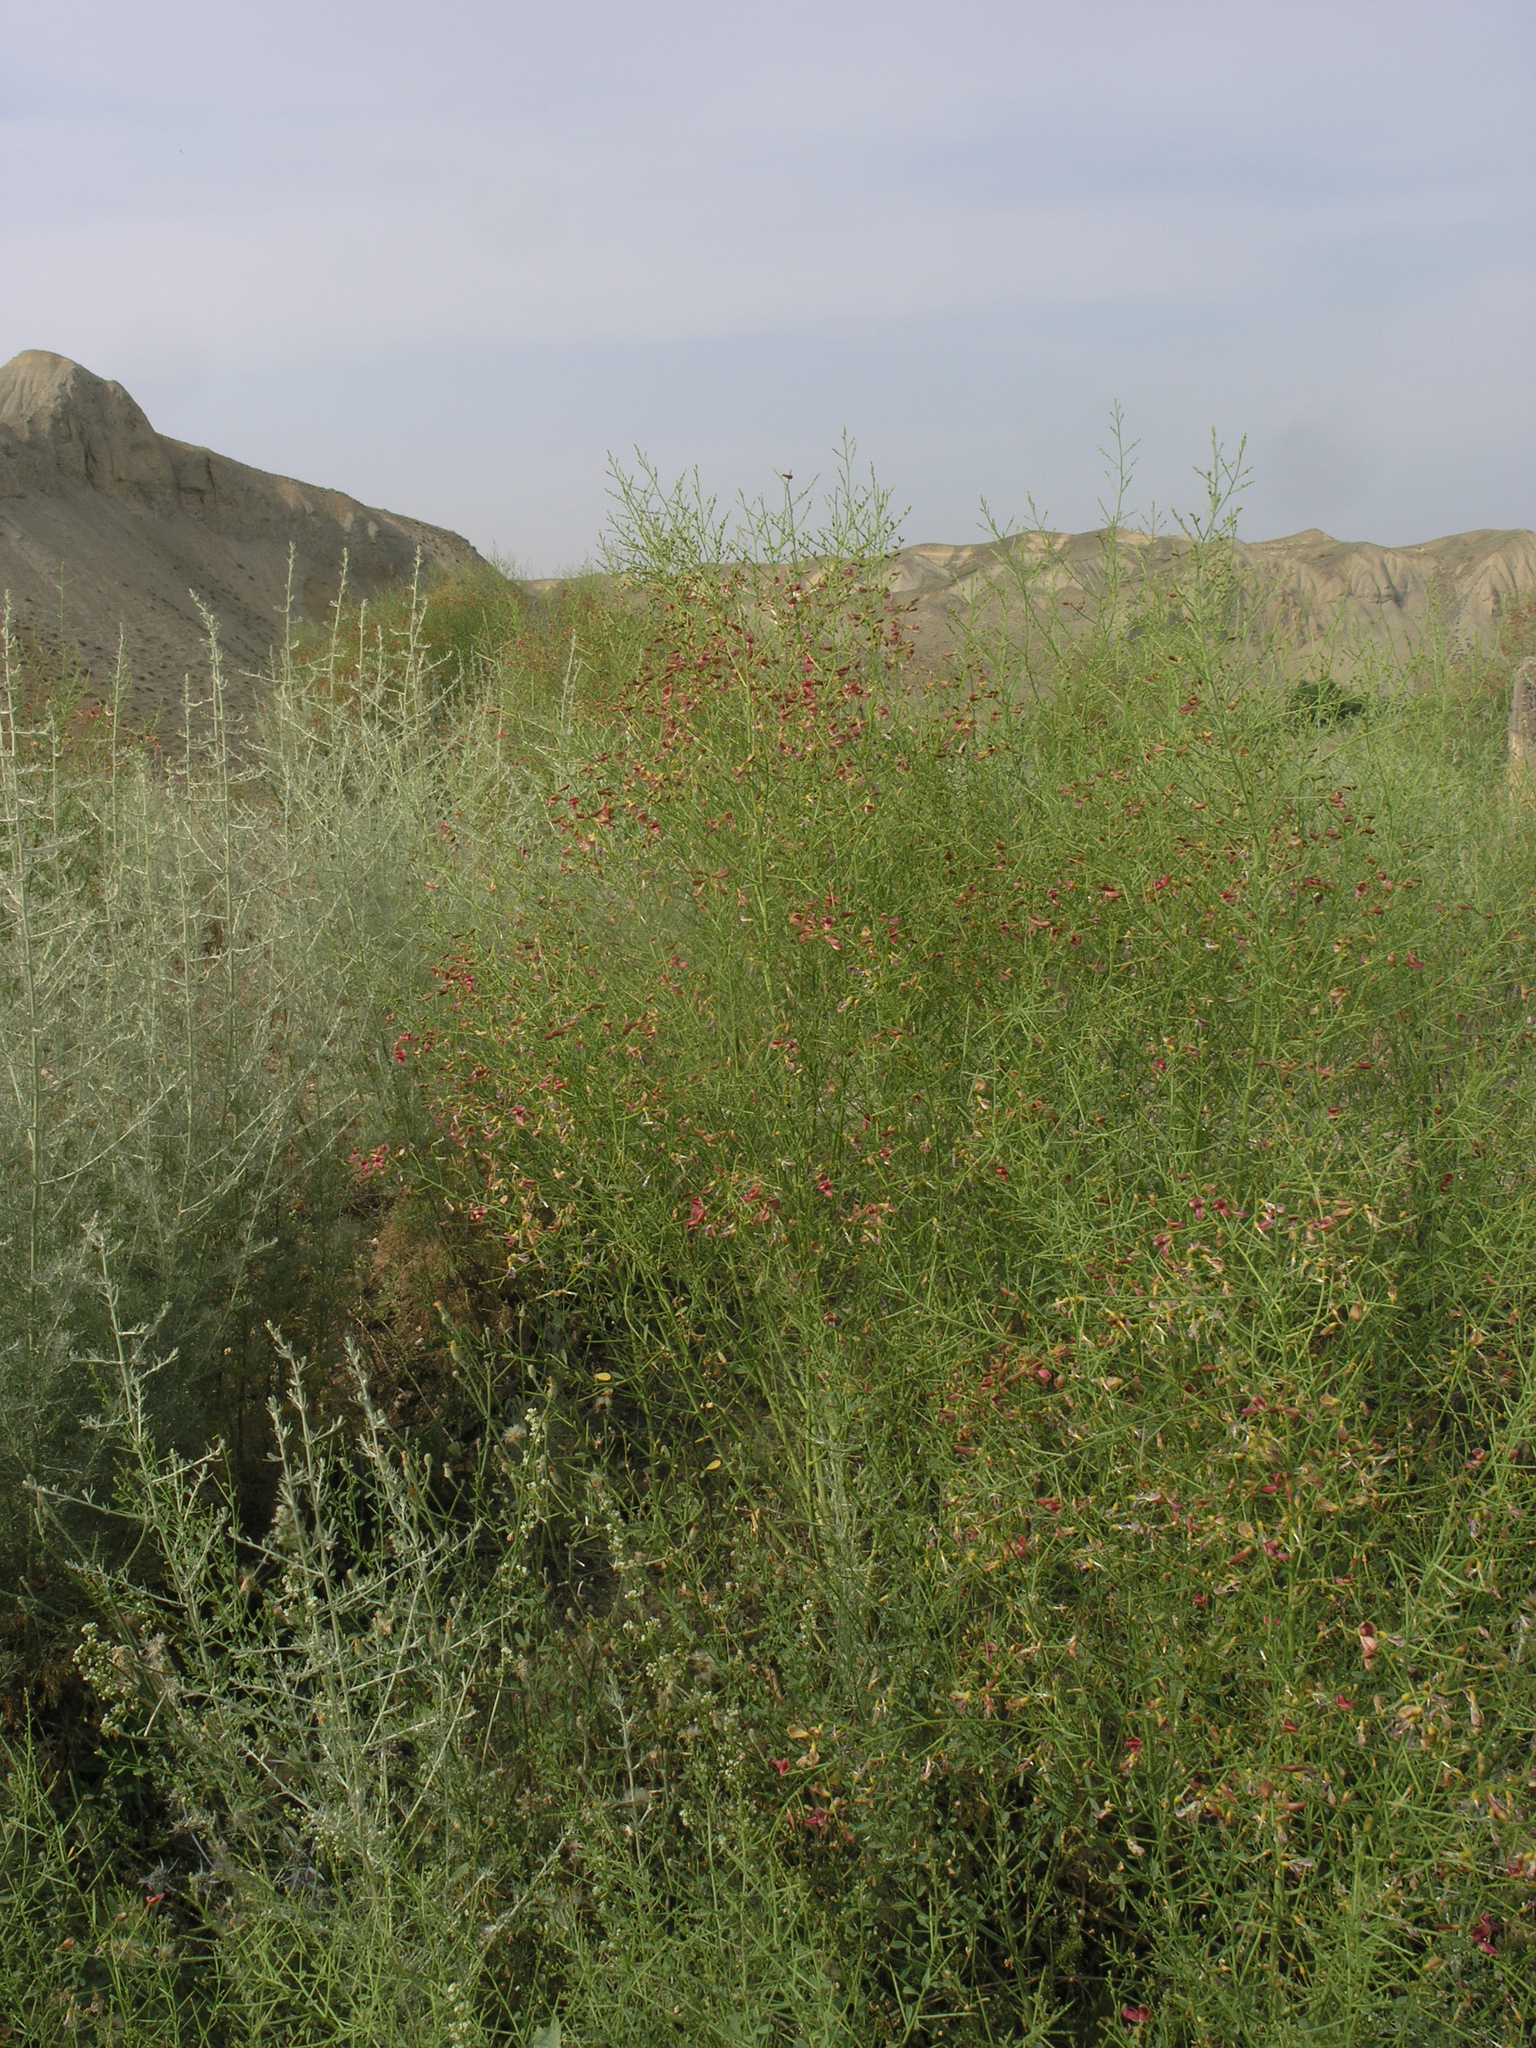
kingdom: Plantae
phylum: Tracheophyta
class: Magnoliopsida
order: Fabales
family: Fabaceae
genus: Alhagi
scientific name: Alhagi pseudalhagi
